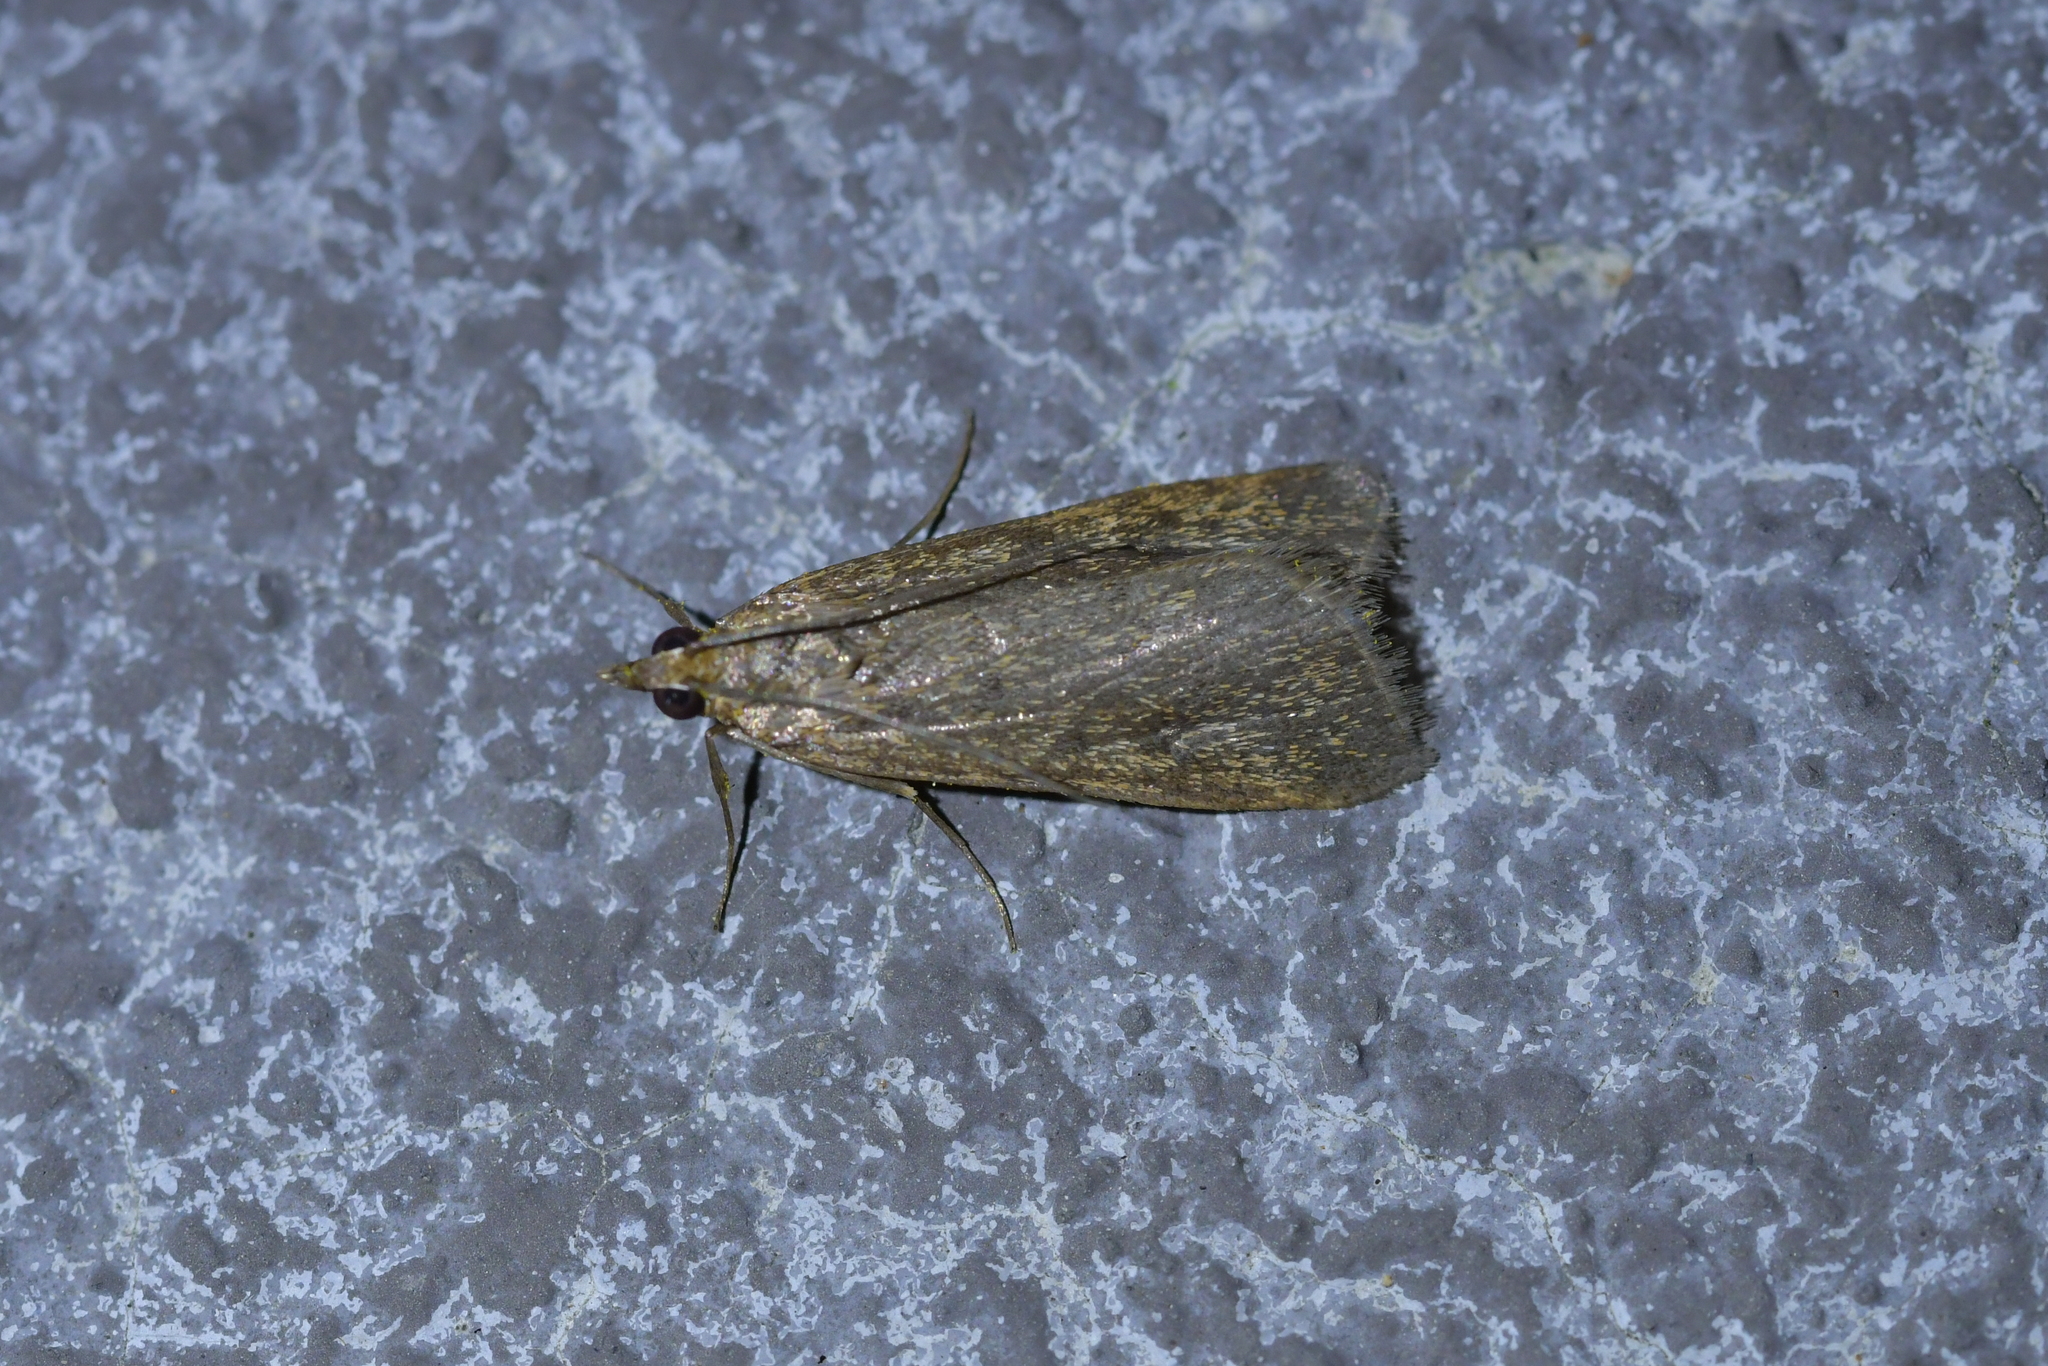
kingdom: Animalia
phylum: Arthropoda
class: Insecta
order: Lepidoptera
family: Crambidae
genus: Achyra
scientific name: Achyra affinitalis
